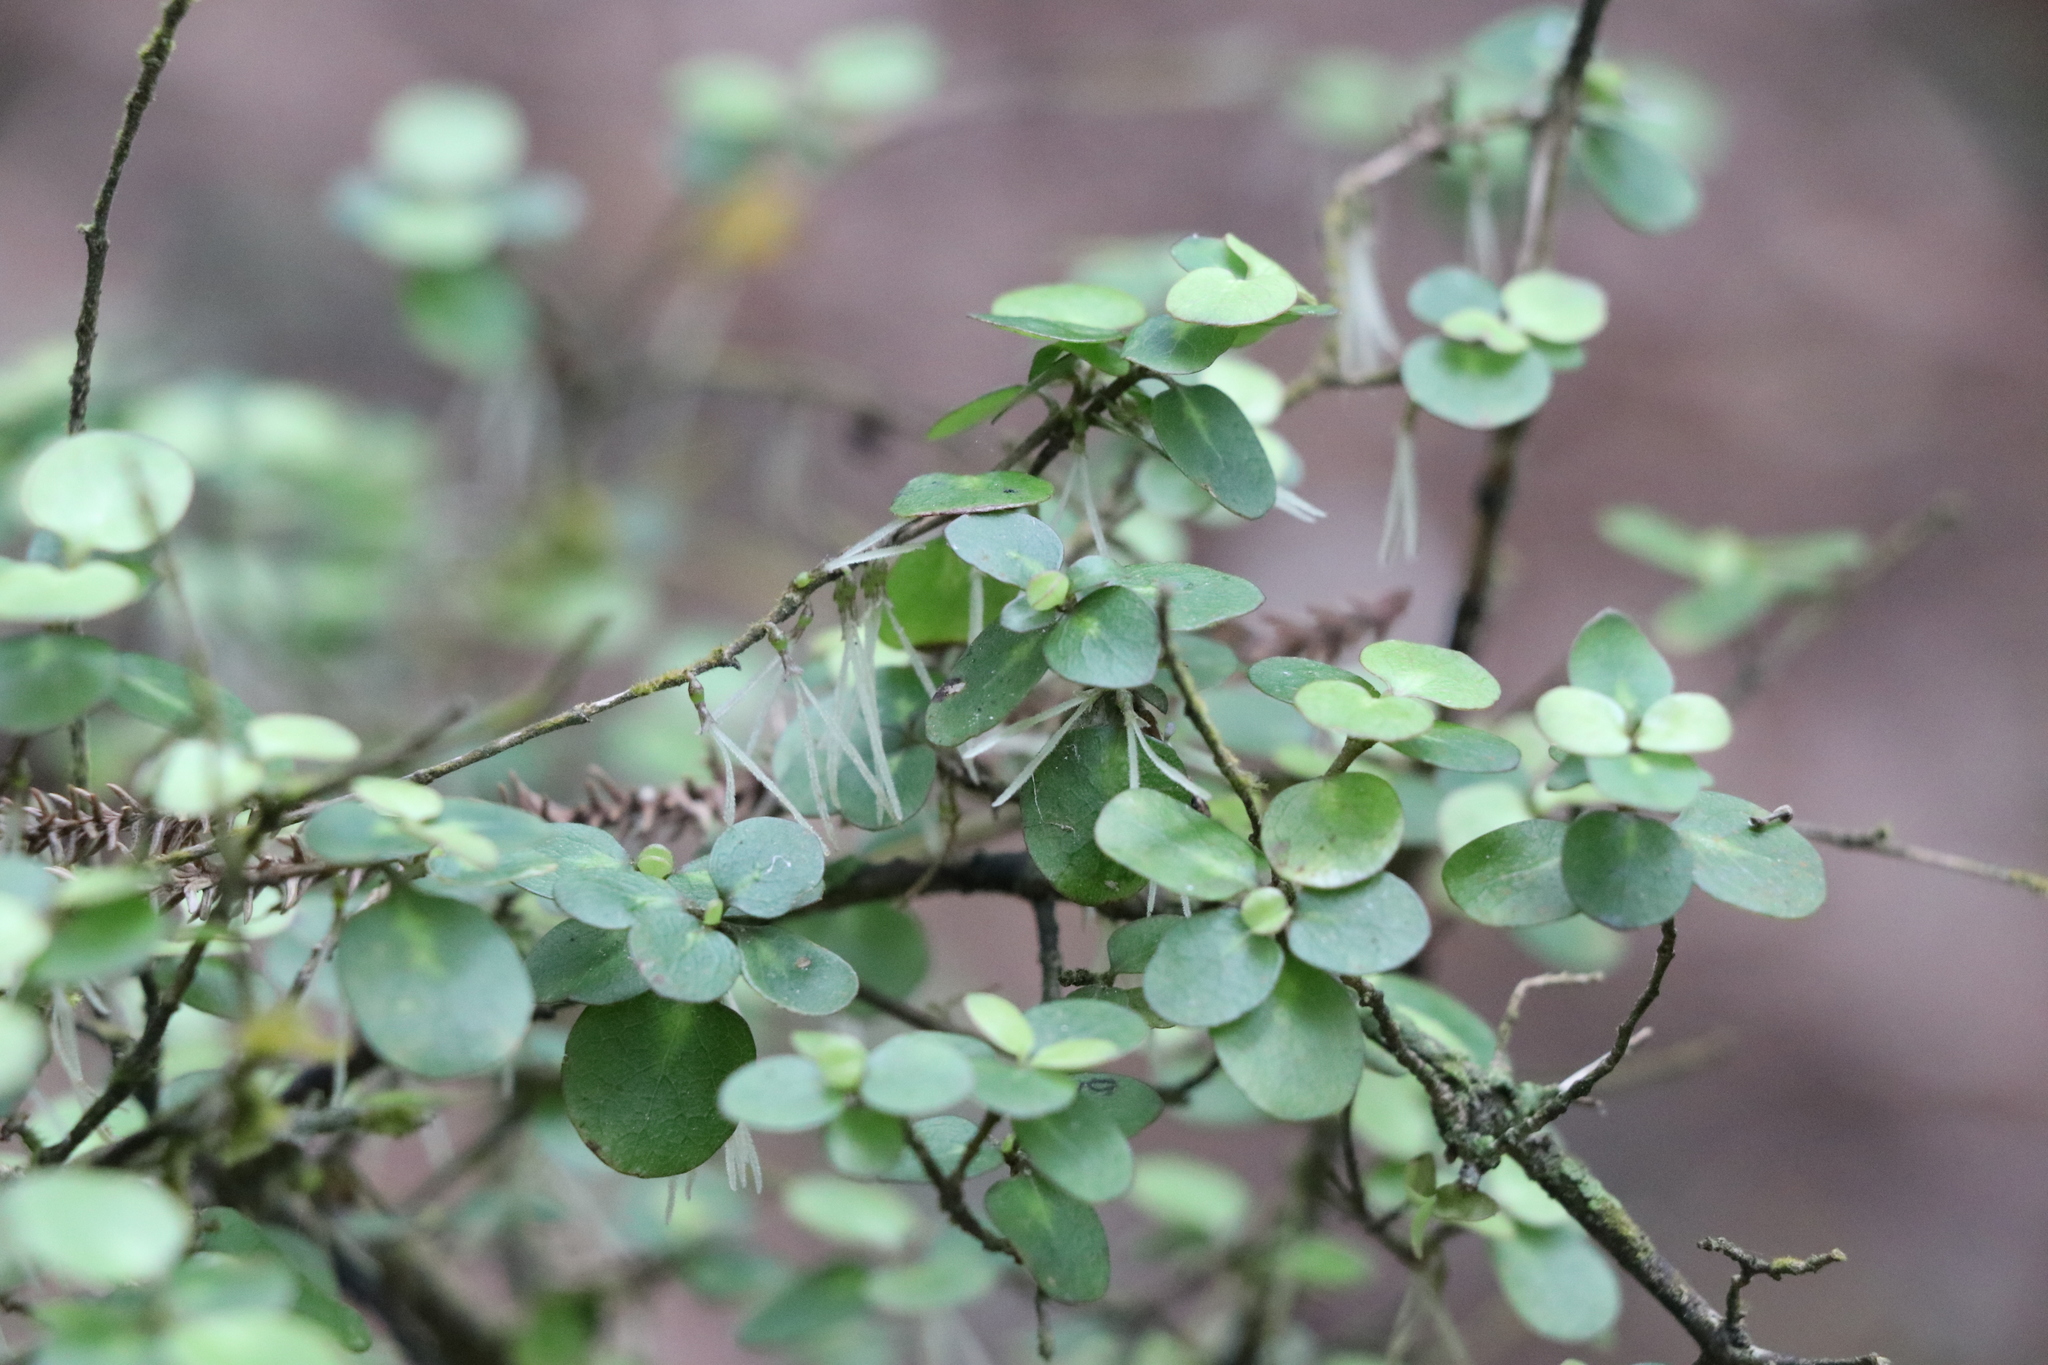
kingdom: Plantae
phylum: Tracheophyta
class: Magnoliopsida
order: Gentianales
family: Rubiaceae
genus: Coprosma
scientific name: Coprosma rhamnoides
